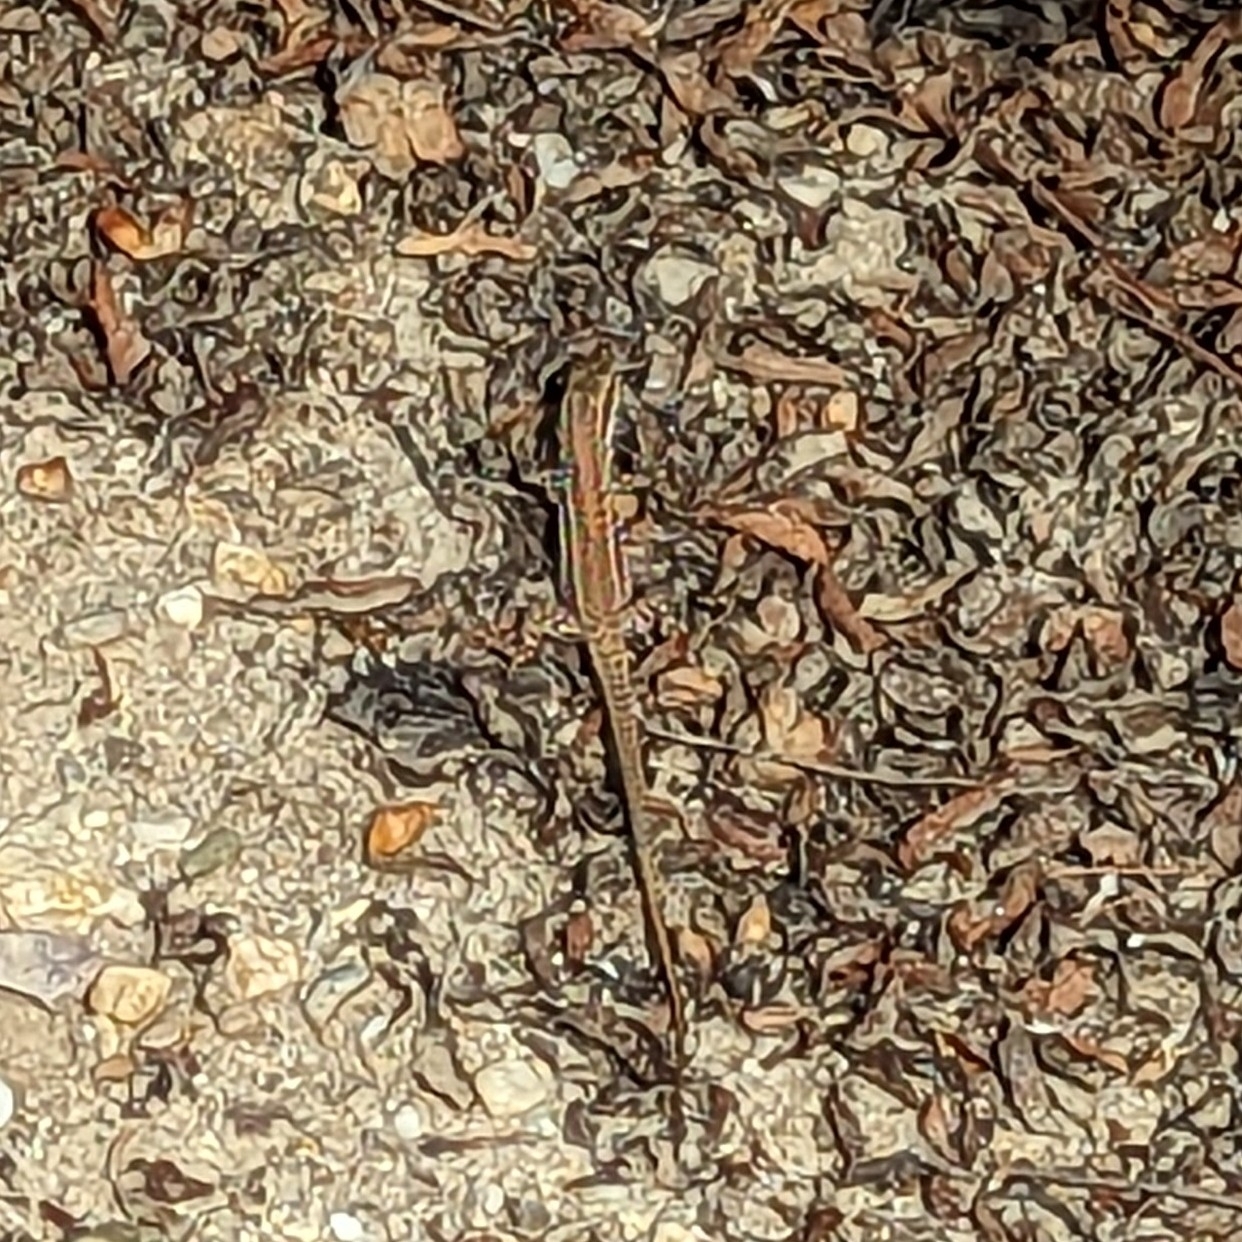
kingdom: Animalia
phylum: Chordata
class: Squamata
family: Lacertidae
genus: Podarcis
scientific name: Podarcis erhardii
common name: Erhard's wall lizard
